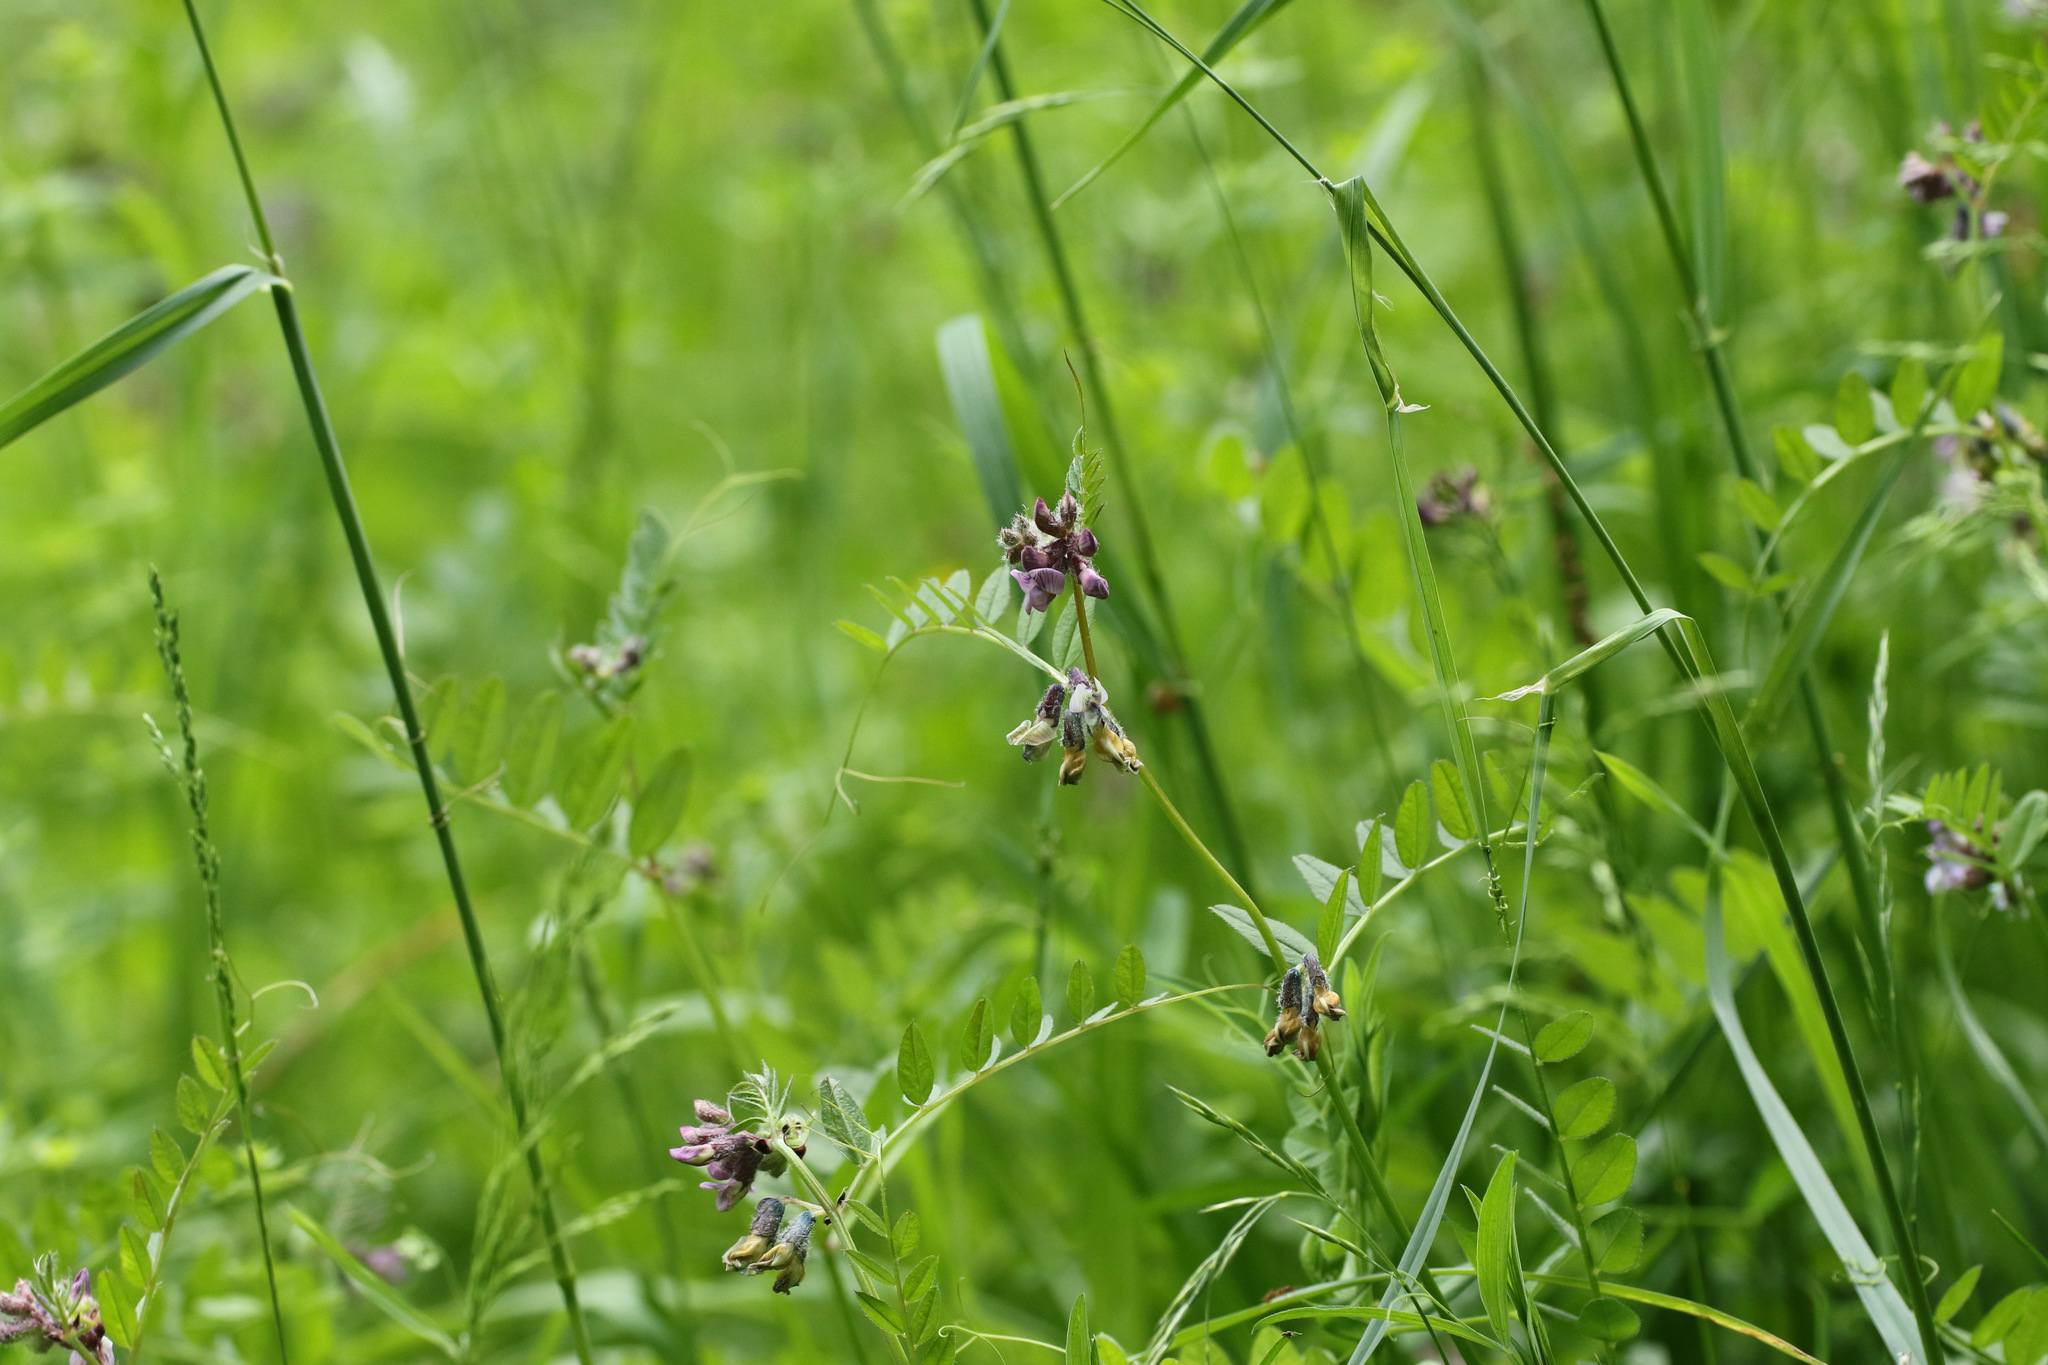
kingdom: Plantae
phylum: Tracheophyta
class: Magnoliopsida
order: Fabales
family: Fabaceae
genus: Vicia
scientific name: Vicia sepium
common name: Bush vetch
